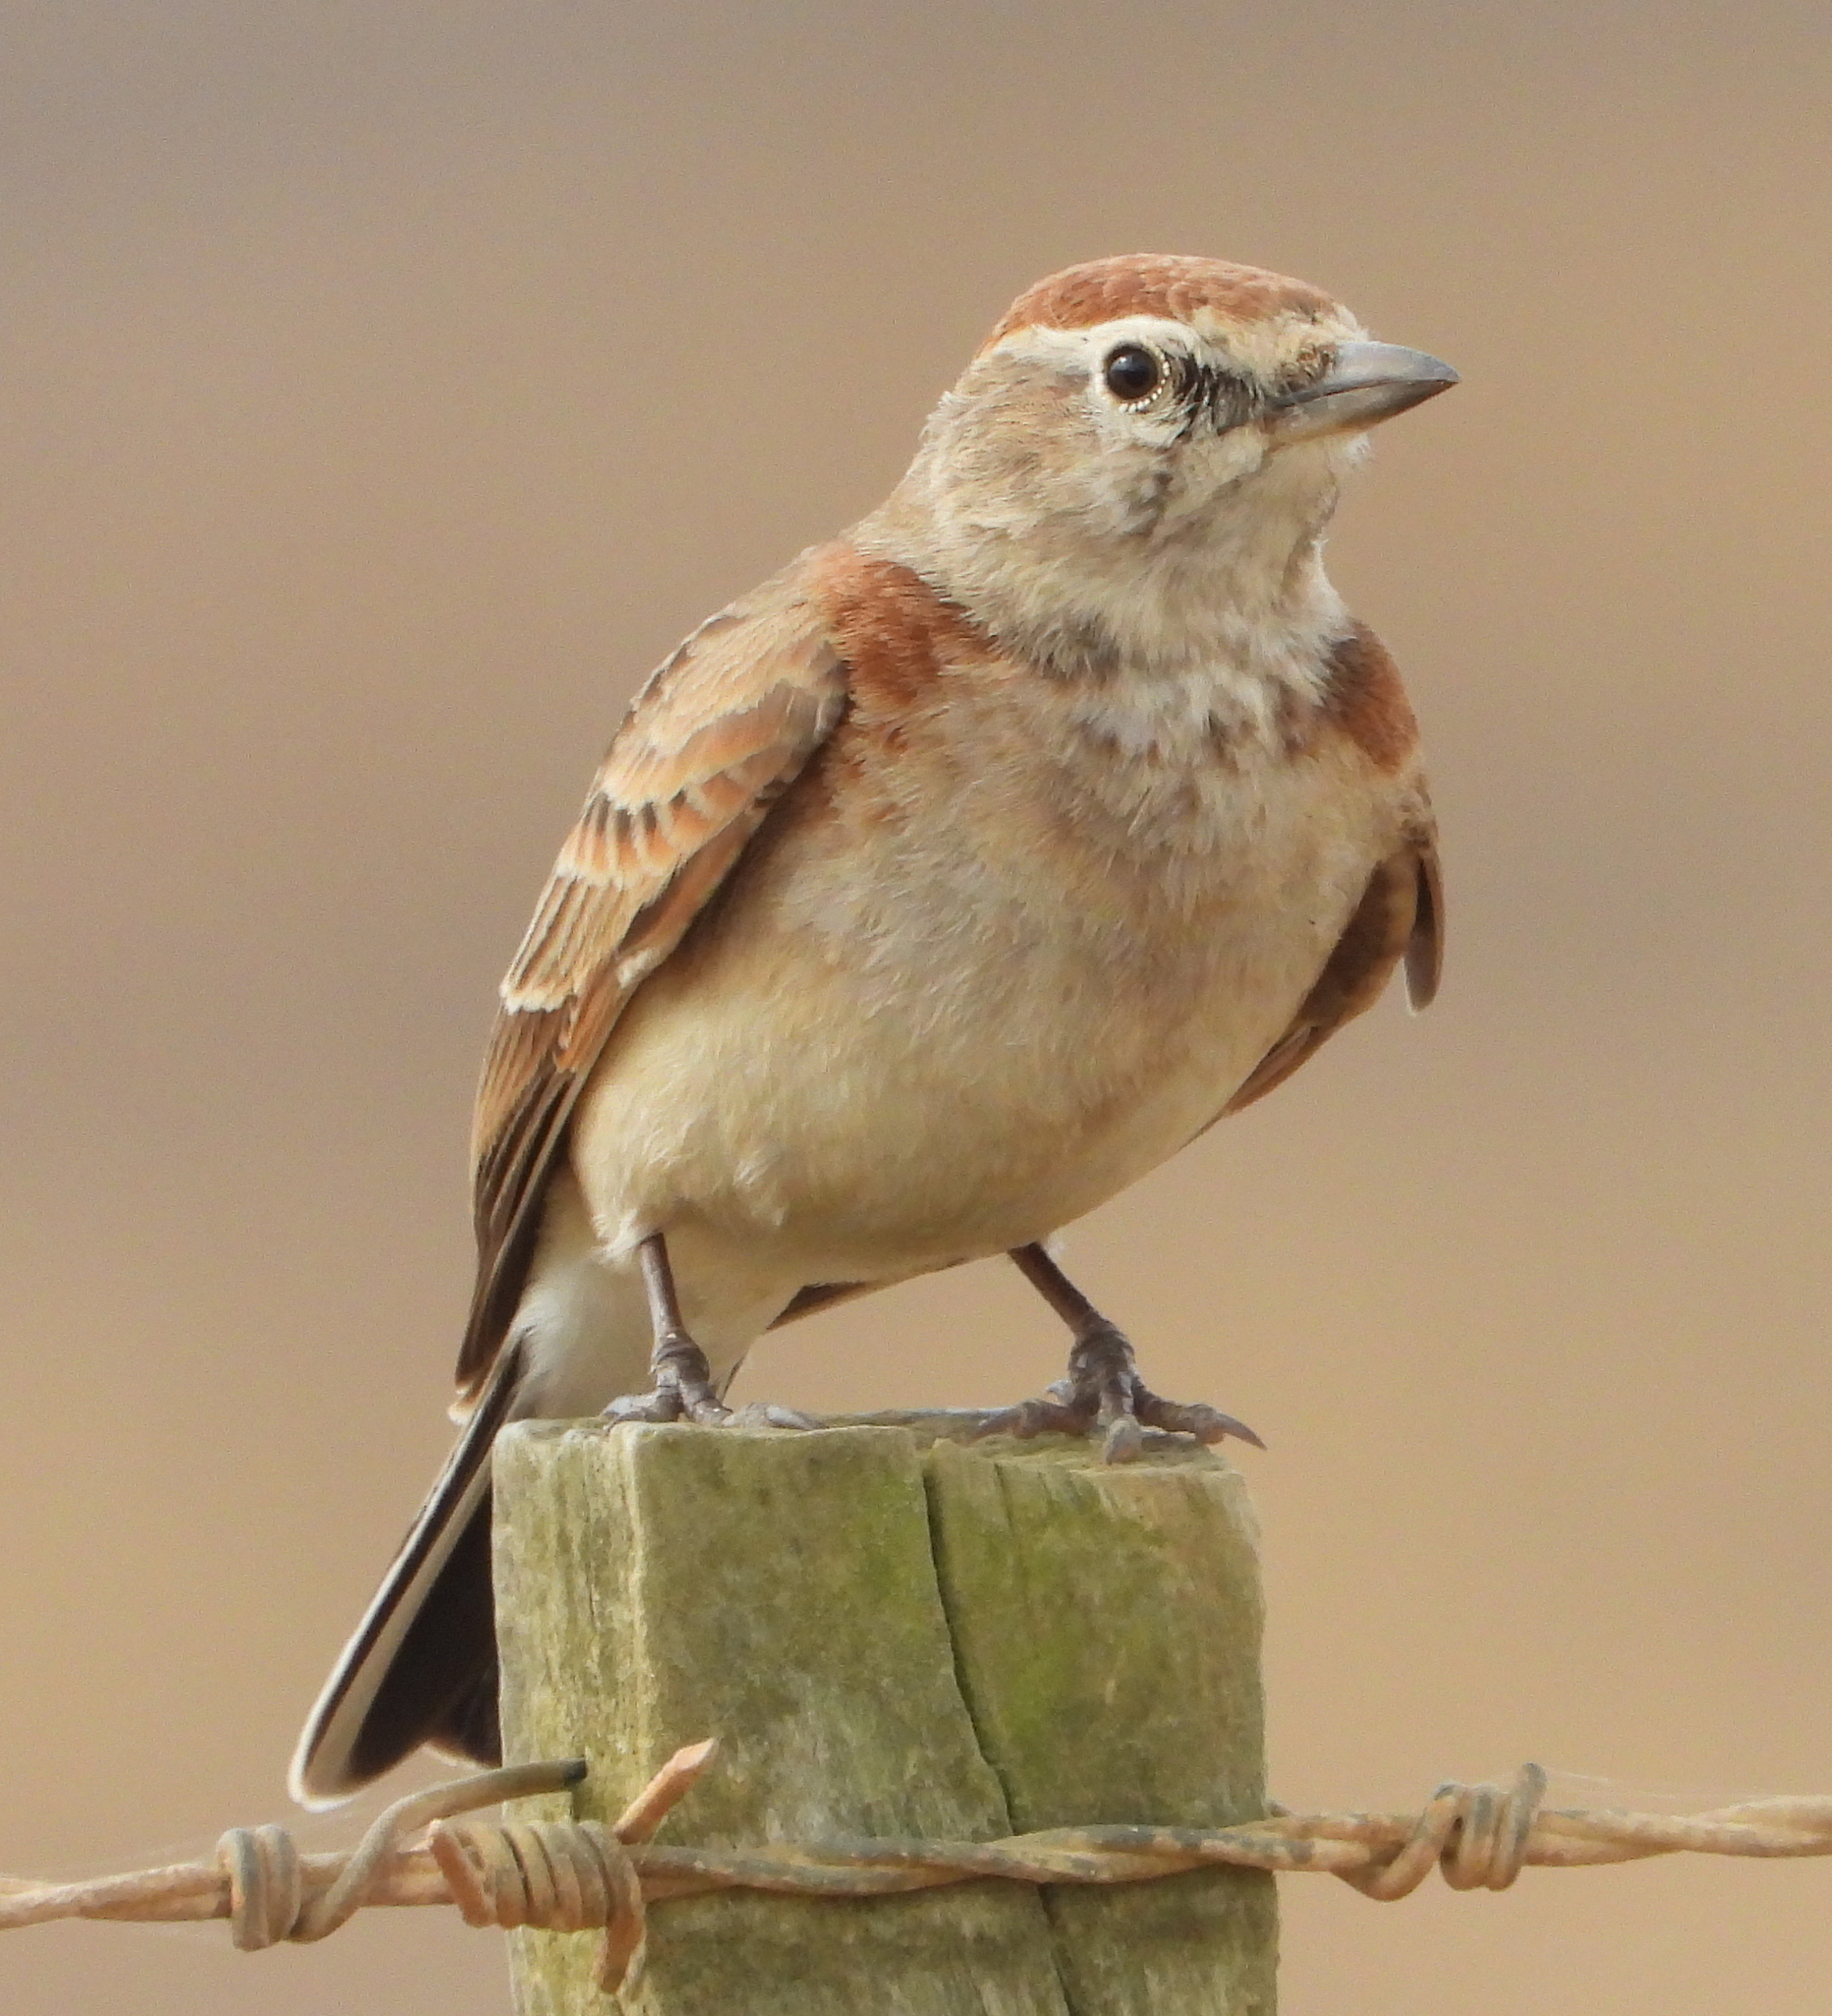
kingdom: Animalia
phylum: Chordata
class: Aves
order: Passeriformes
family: Alaudidae
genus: Calandrella
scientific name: Calandrella cinerea
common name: Red-capped lark
